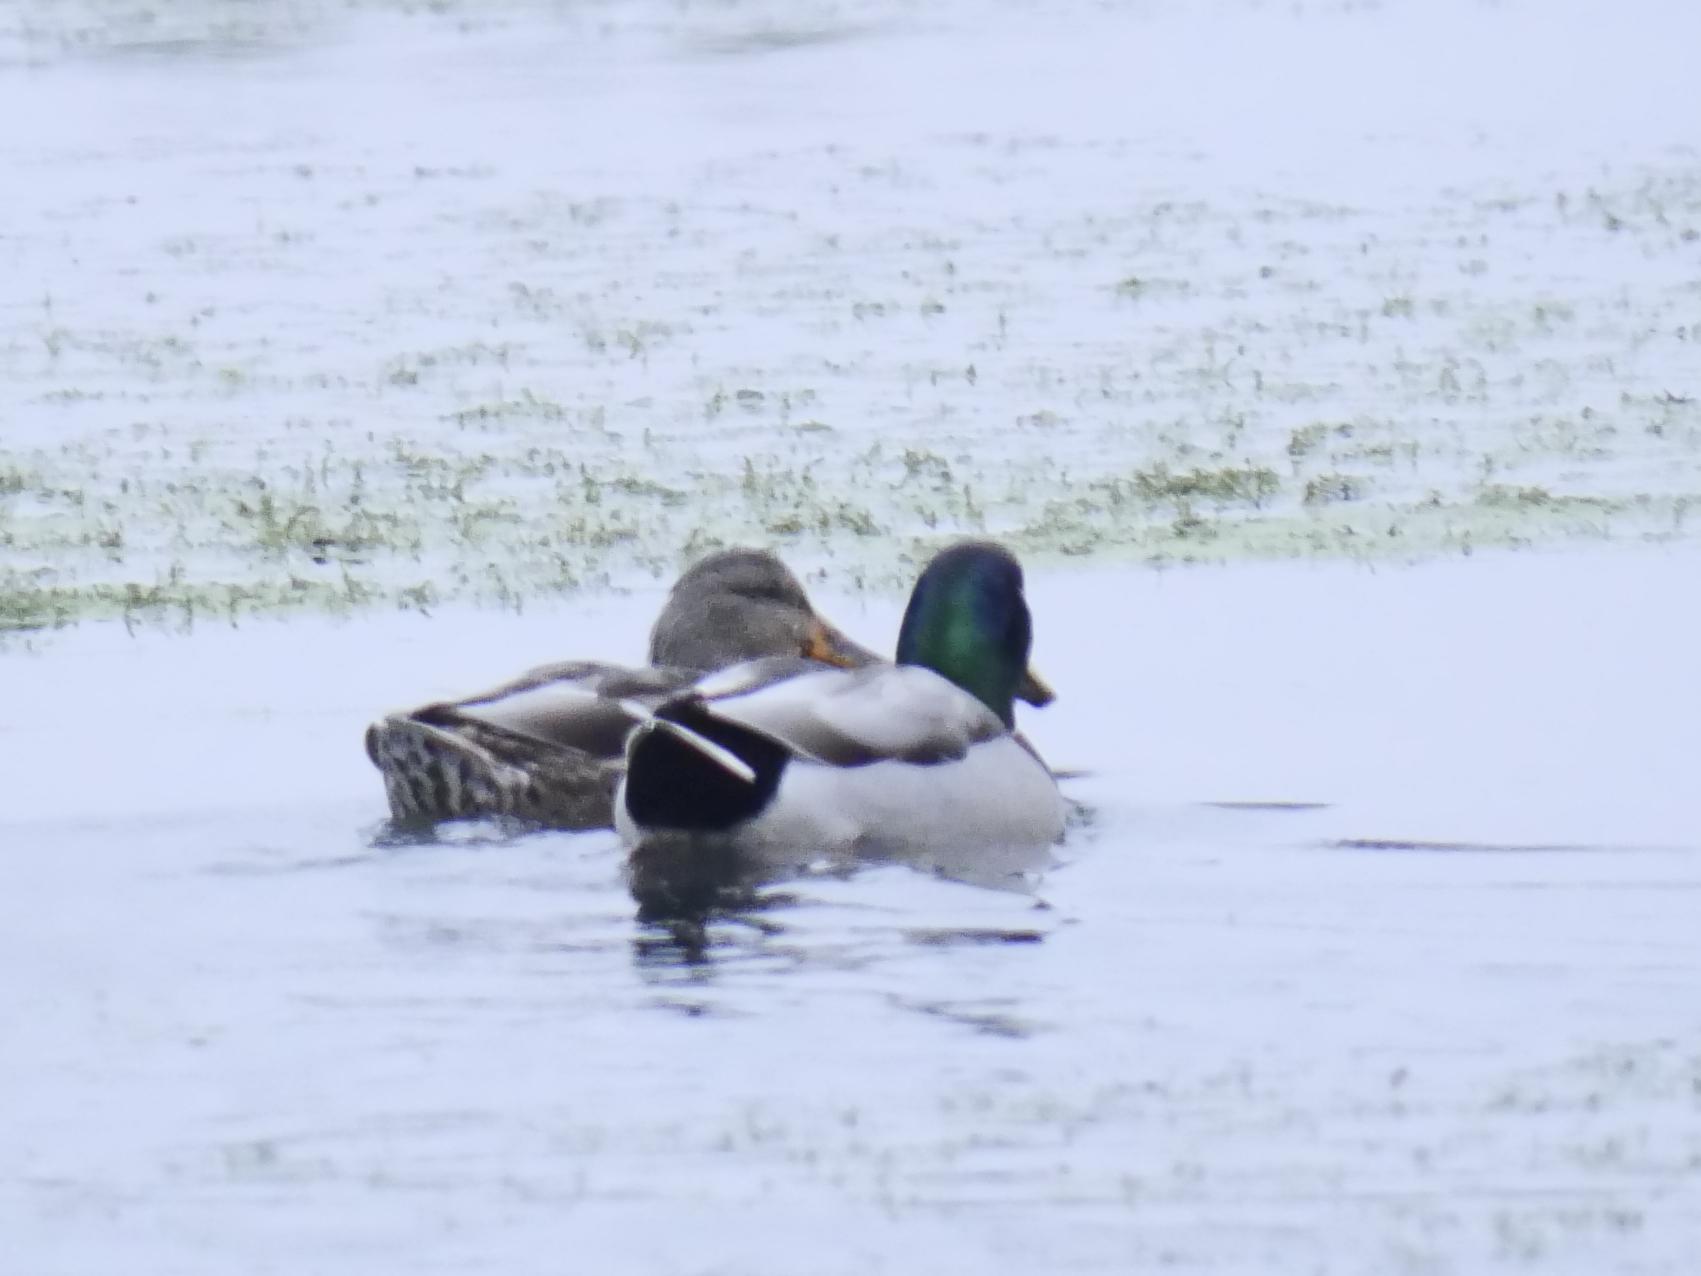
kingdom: Animalia
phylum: Chordata
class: Aves
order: Anseriformes
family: Anatidae
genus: Anas
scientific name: Anas platyrhynchos
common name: Mallard
